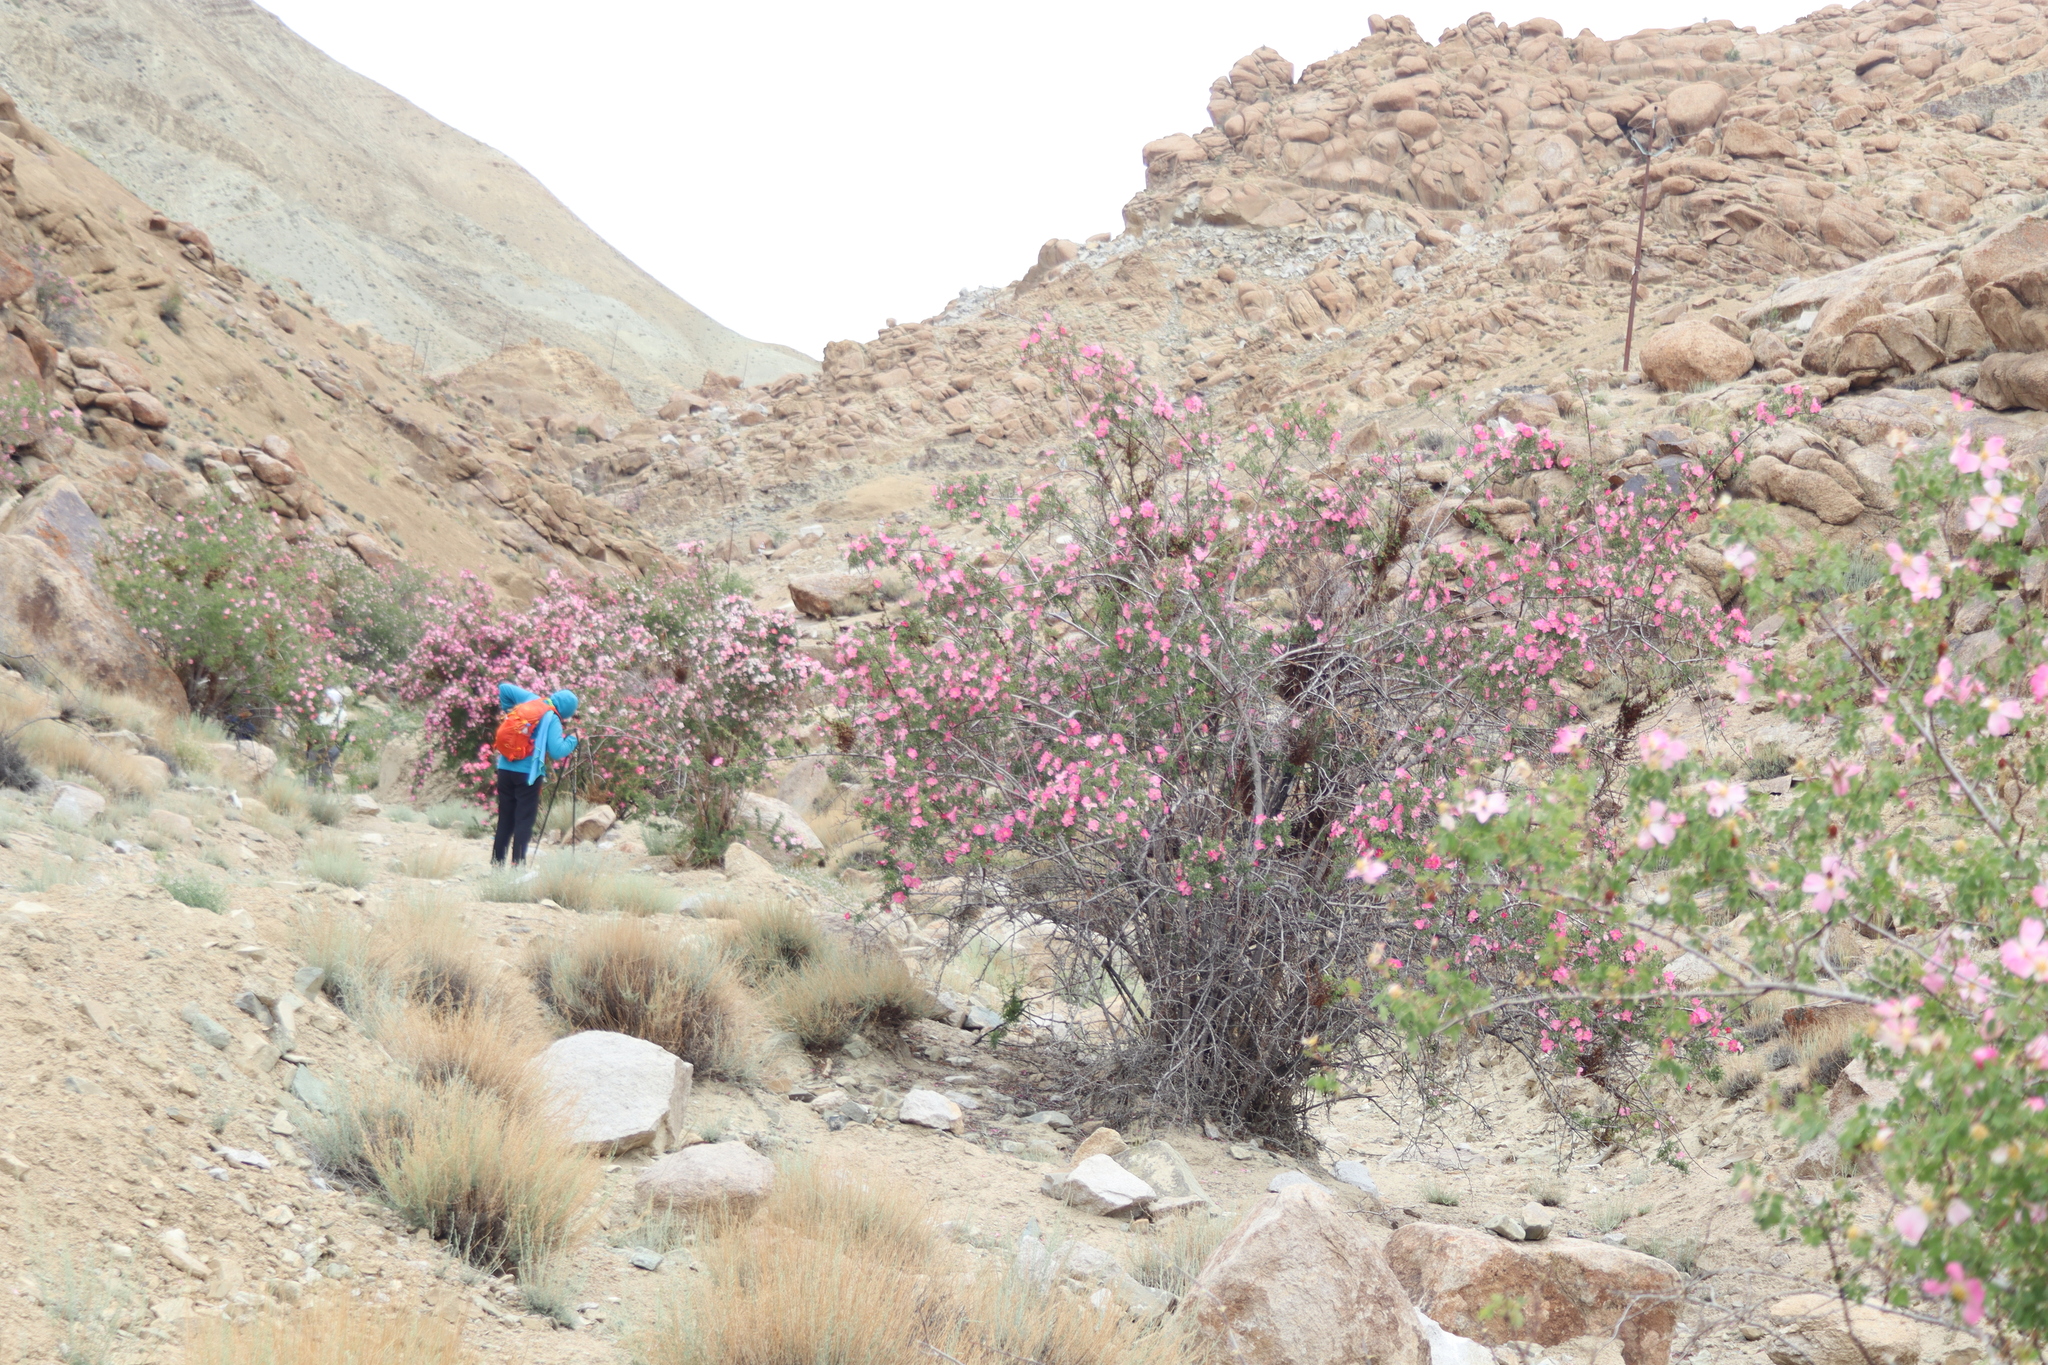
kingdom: Plantae
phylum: Tracheophyta
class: Magnoliopsida
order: Rosales
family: Rosaceae
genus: Rosa
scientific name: Rosa webbiana
